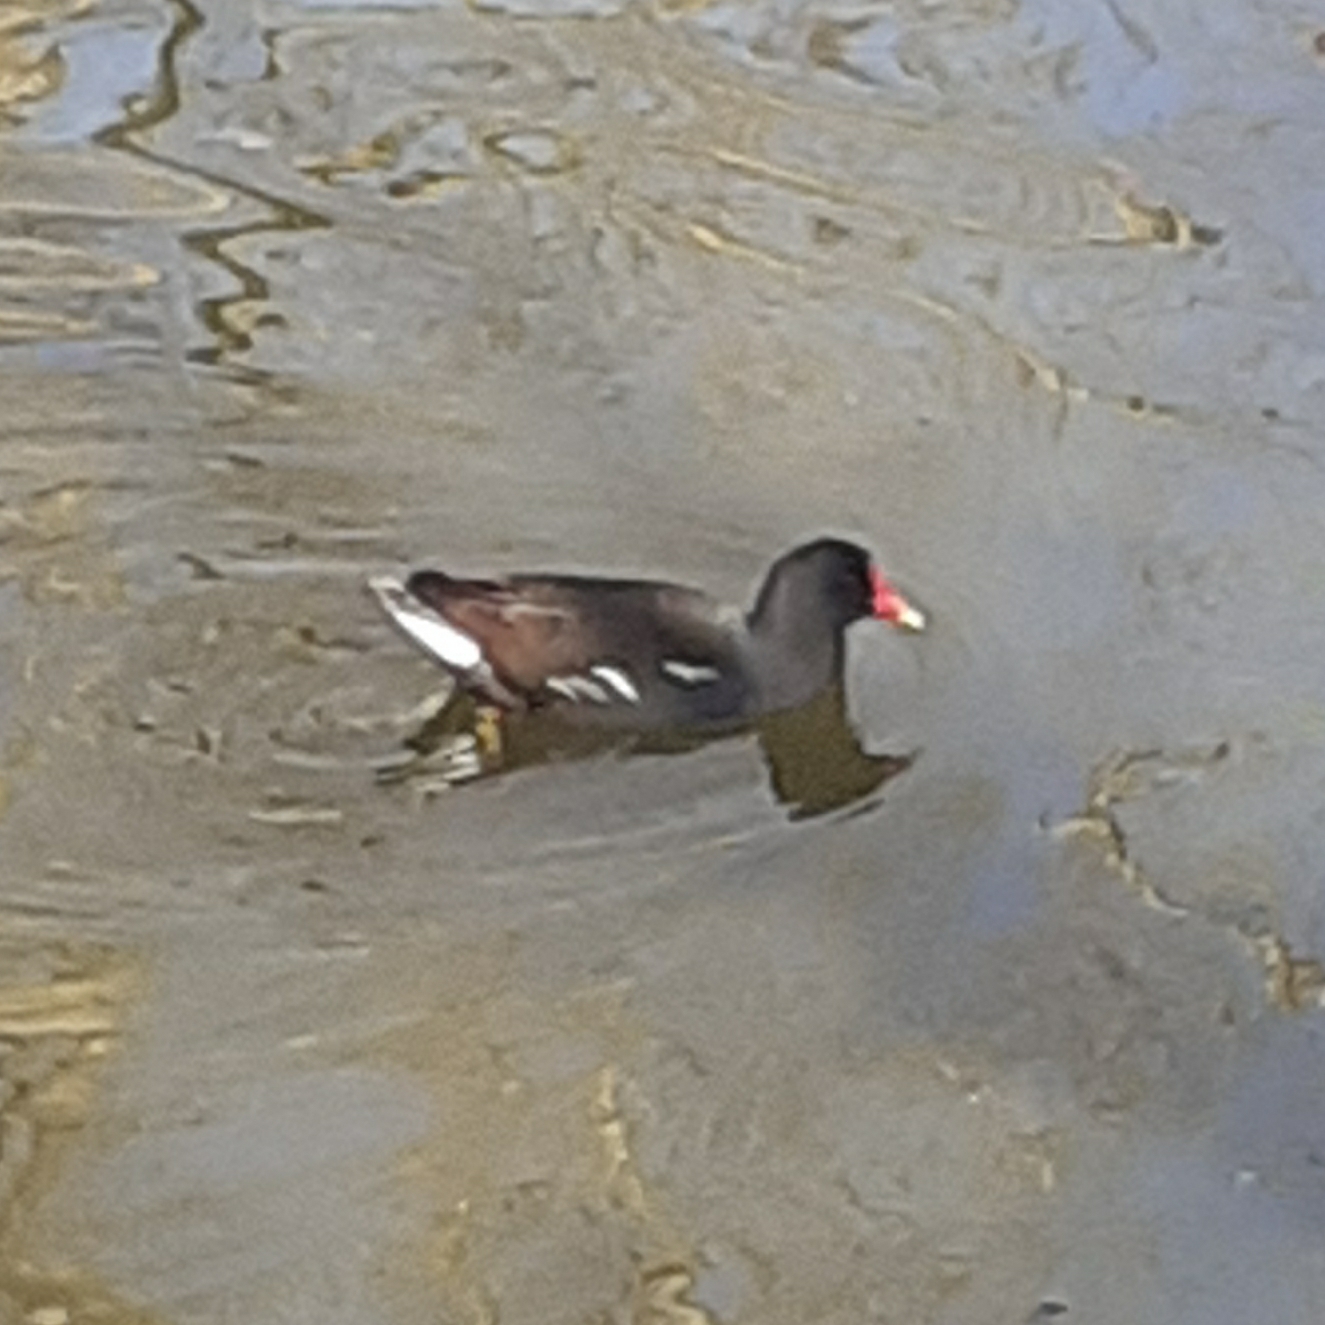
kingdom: Animalia
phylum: Chordata
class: Aves
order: Gruiformes
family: Rallidae
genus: Gallinula
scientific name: Gallinula chloropus
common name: Common moorhen
